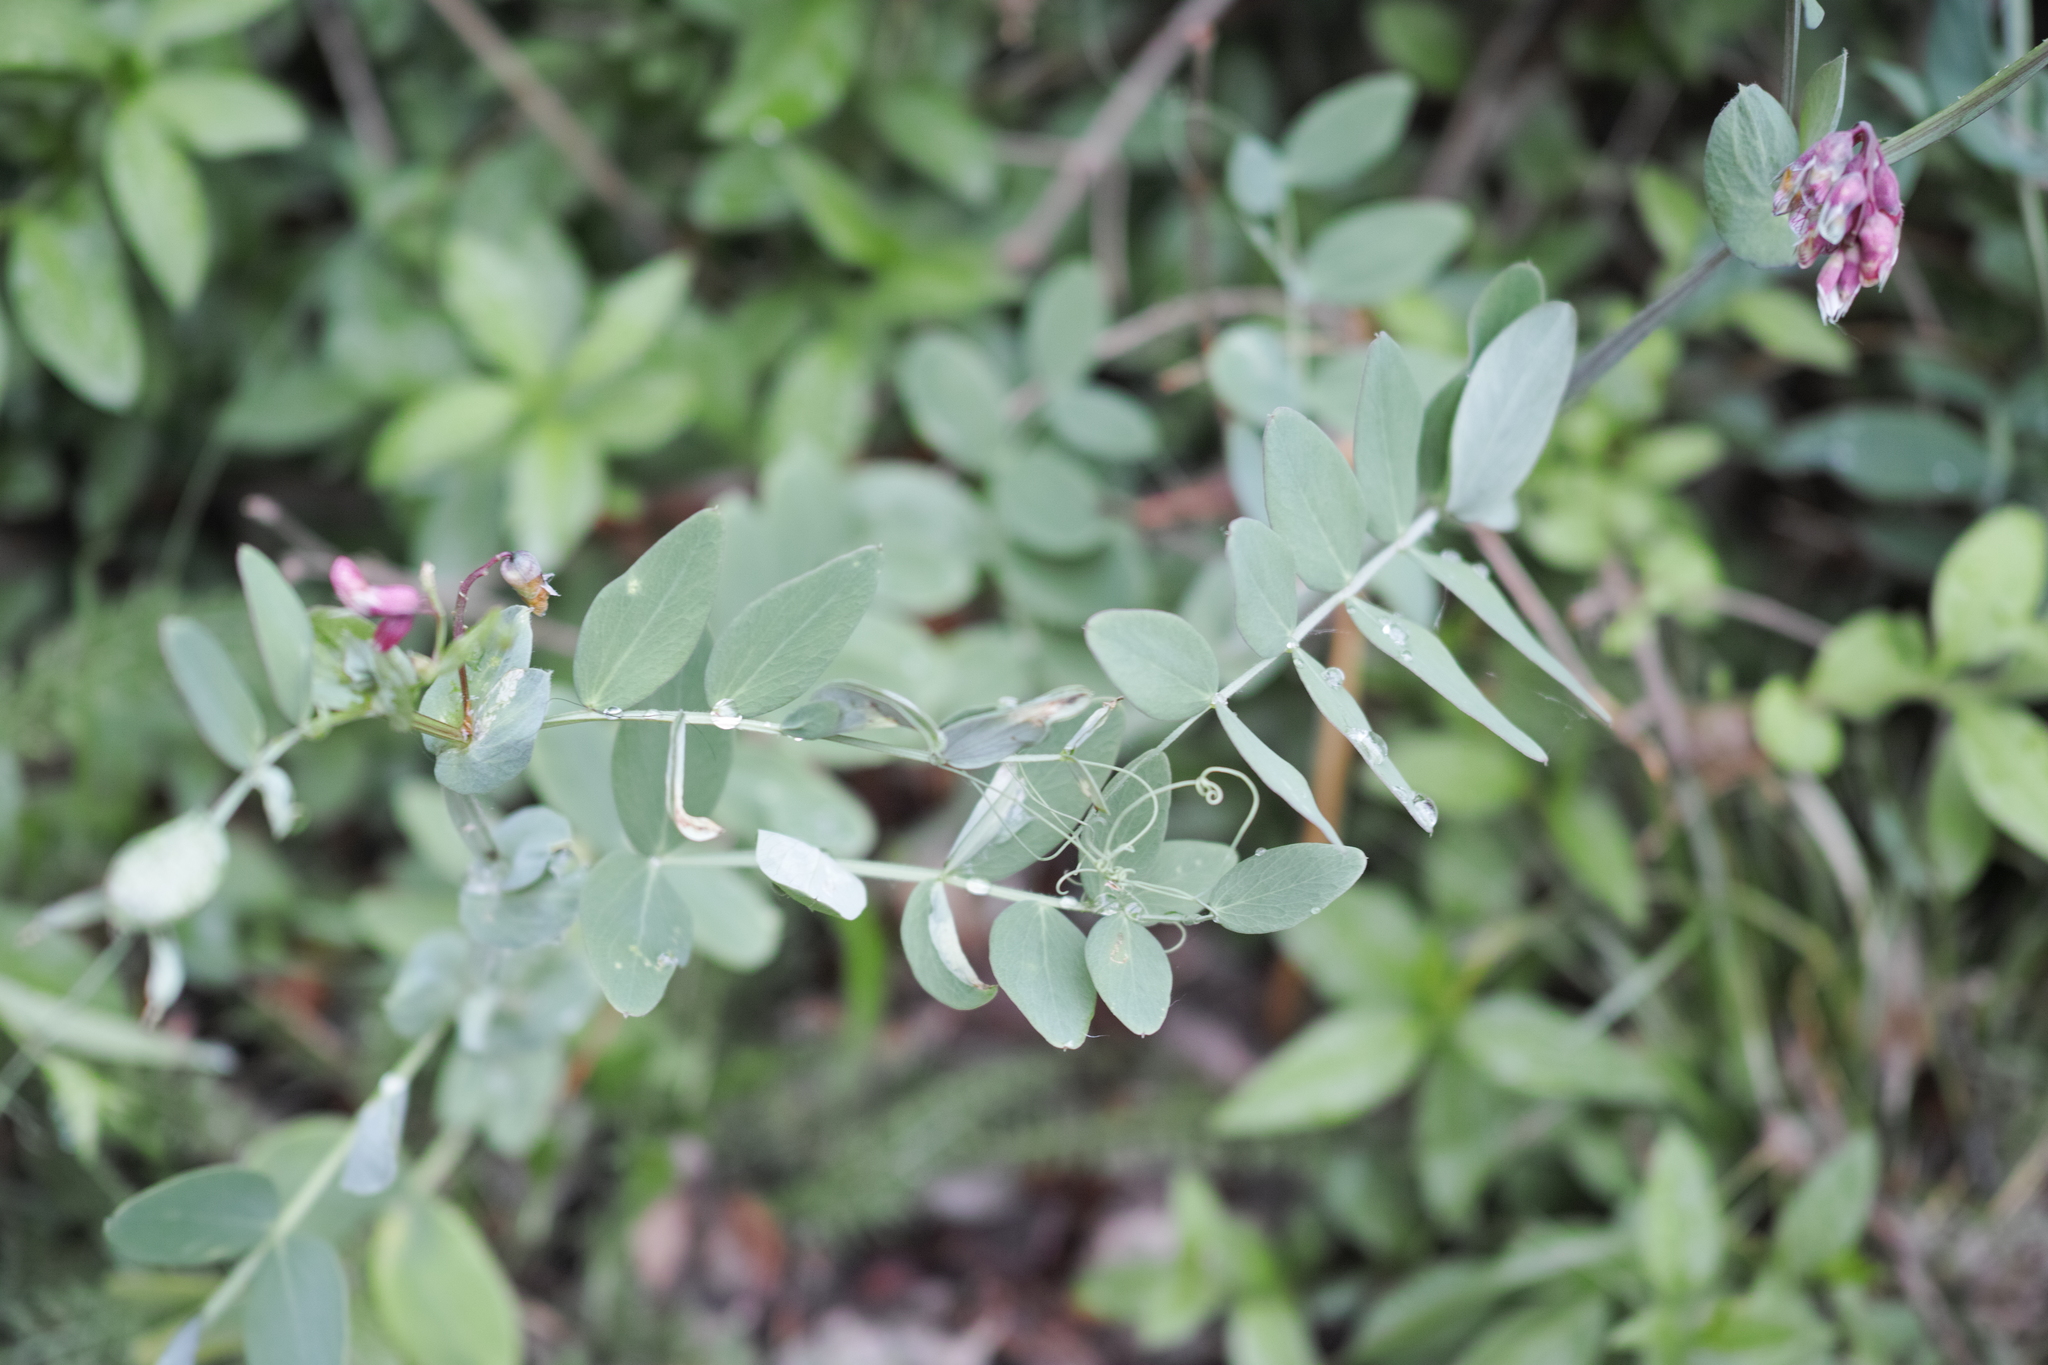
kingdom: Plantae
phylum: Tracheophyta
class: Magnoliopsida
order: Fabales
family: Fabaceae
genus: Lathyrus
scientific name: Lathyrus pisiformis
